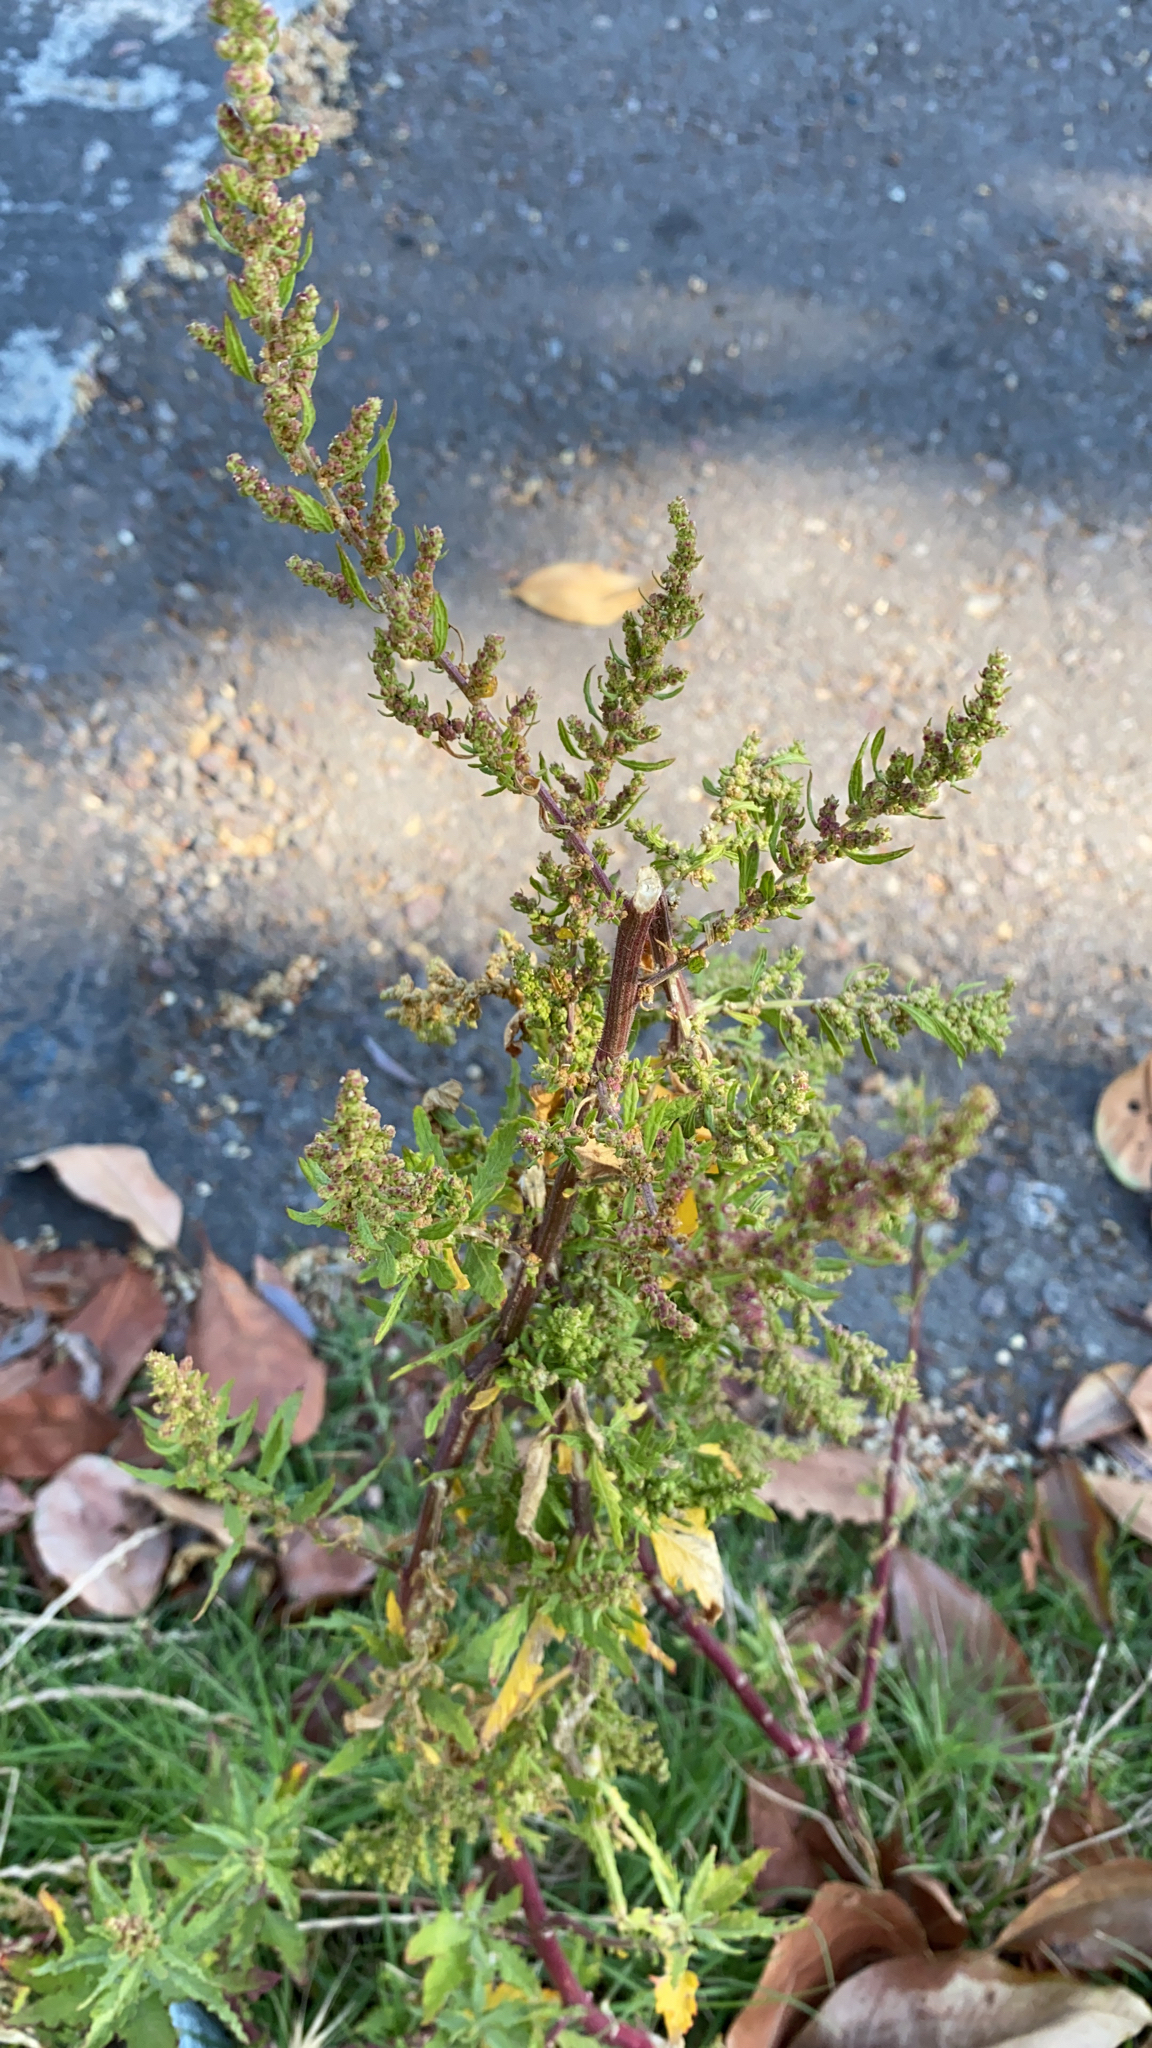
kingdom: Plantae
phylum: Tracheophyta
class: Magnoliopsida
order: Caryophyllales
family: Amaranthaceae
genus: Dysphania
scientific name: Dysphania ambrosioides
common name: Wormseed
